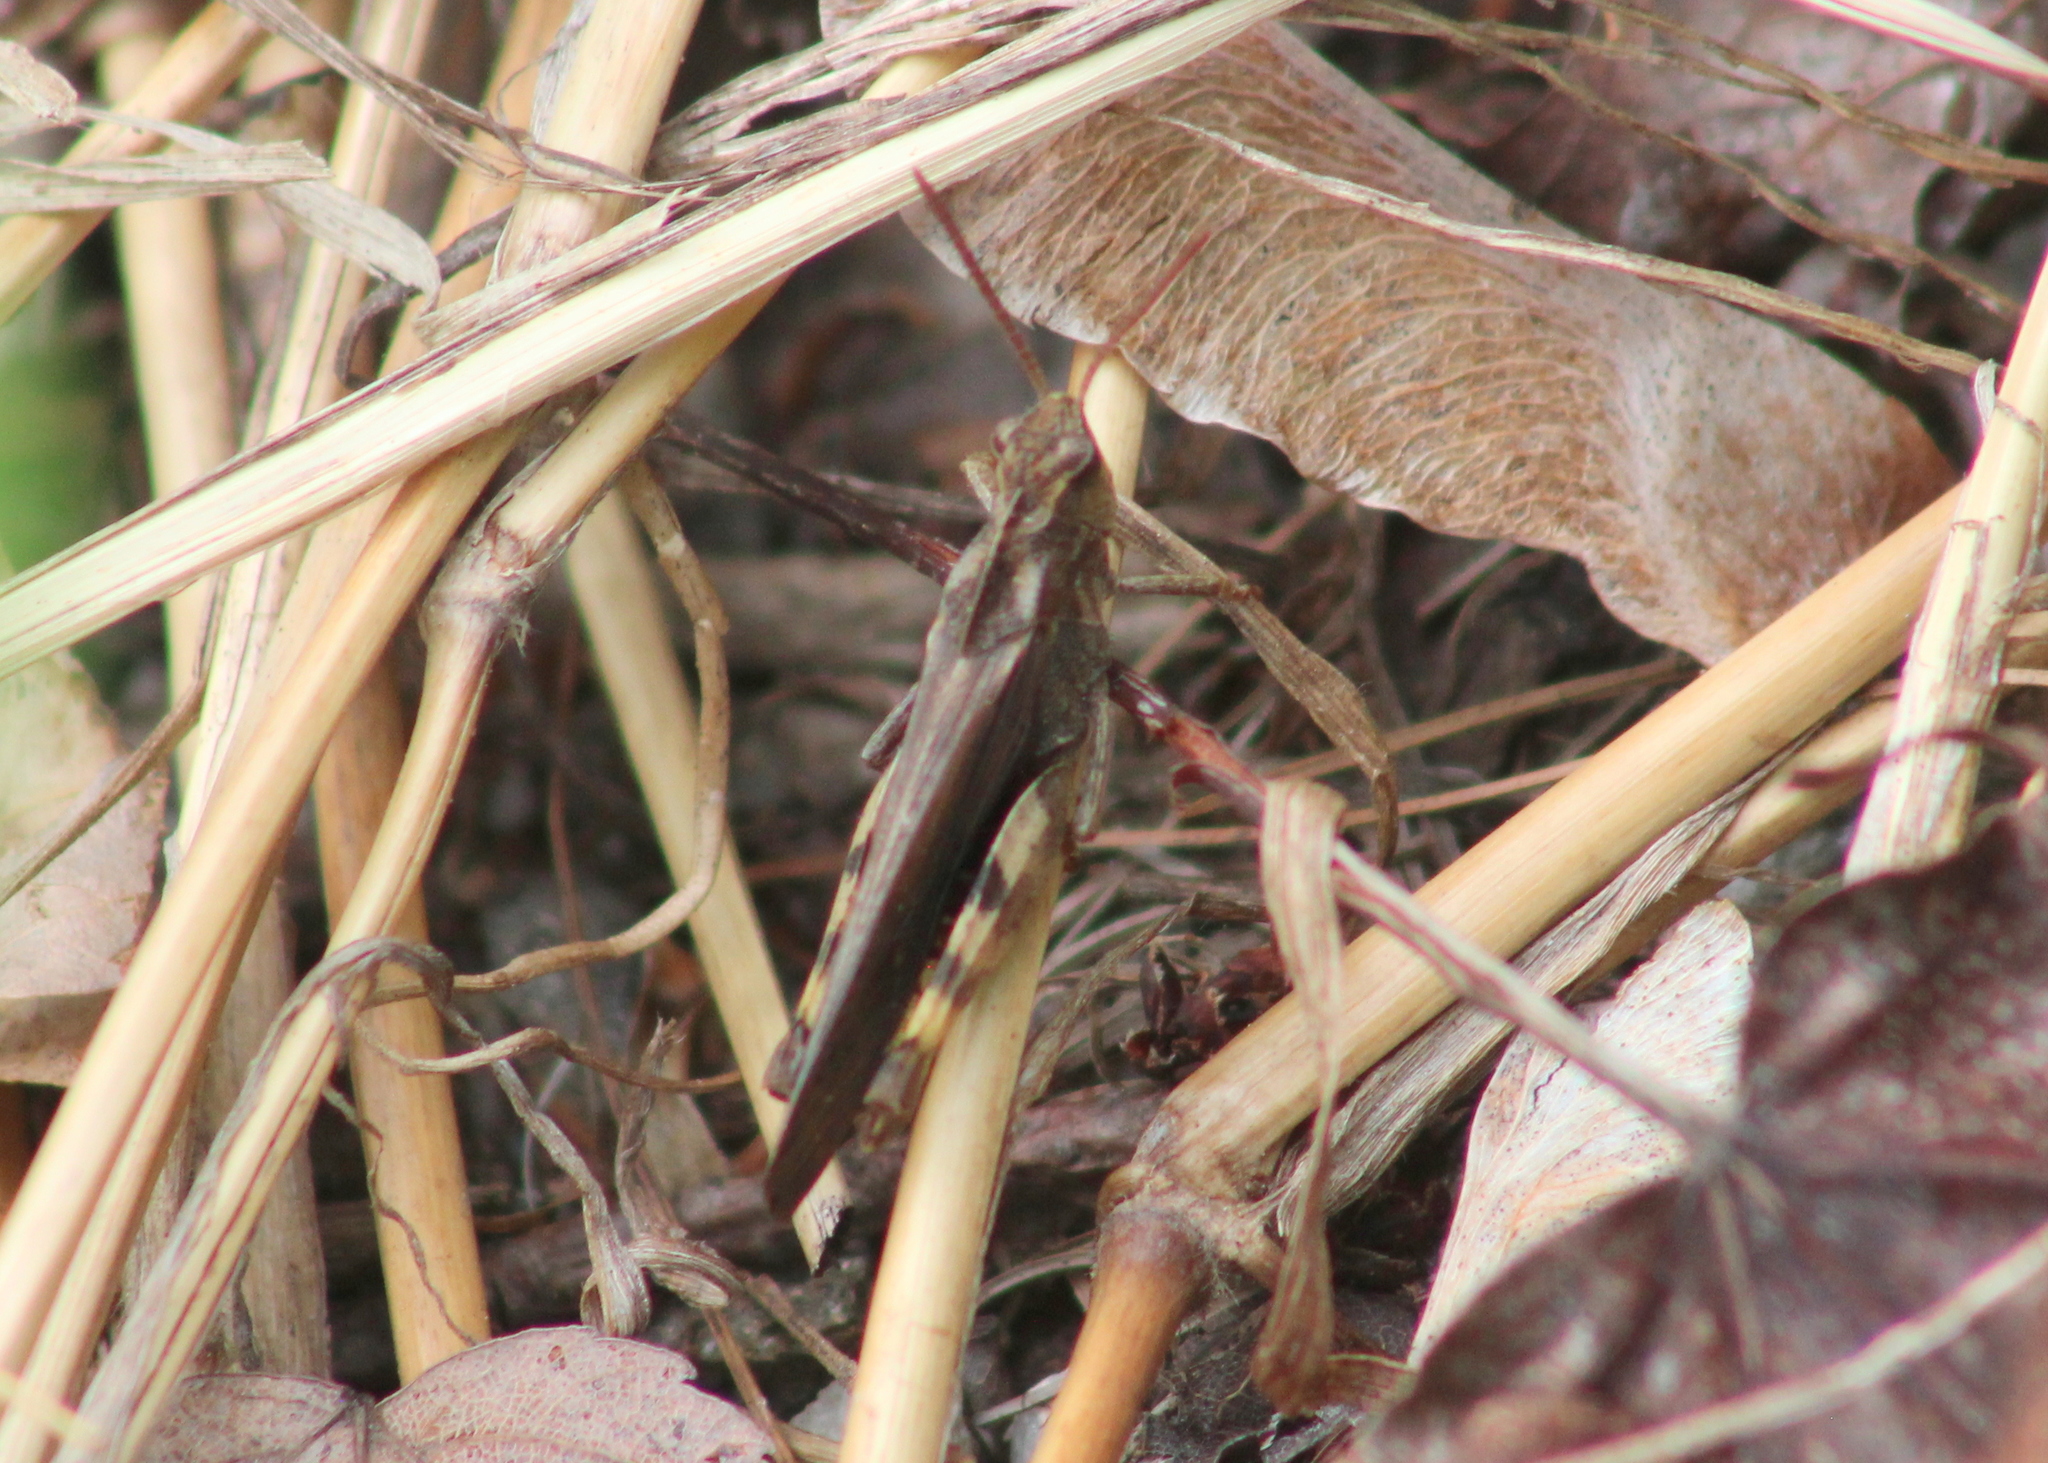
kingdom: Animalia
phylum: Arthropoda
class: Insecta
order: Orthoptera
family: Acrididae
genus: Chortophaga
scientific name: Chortophaga viridifasciata
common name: Green-striped grasshopper
